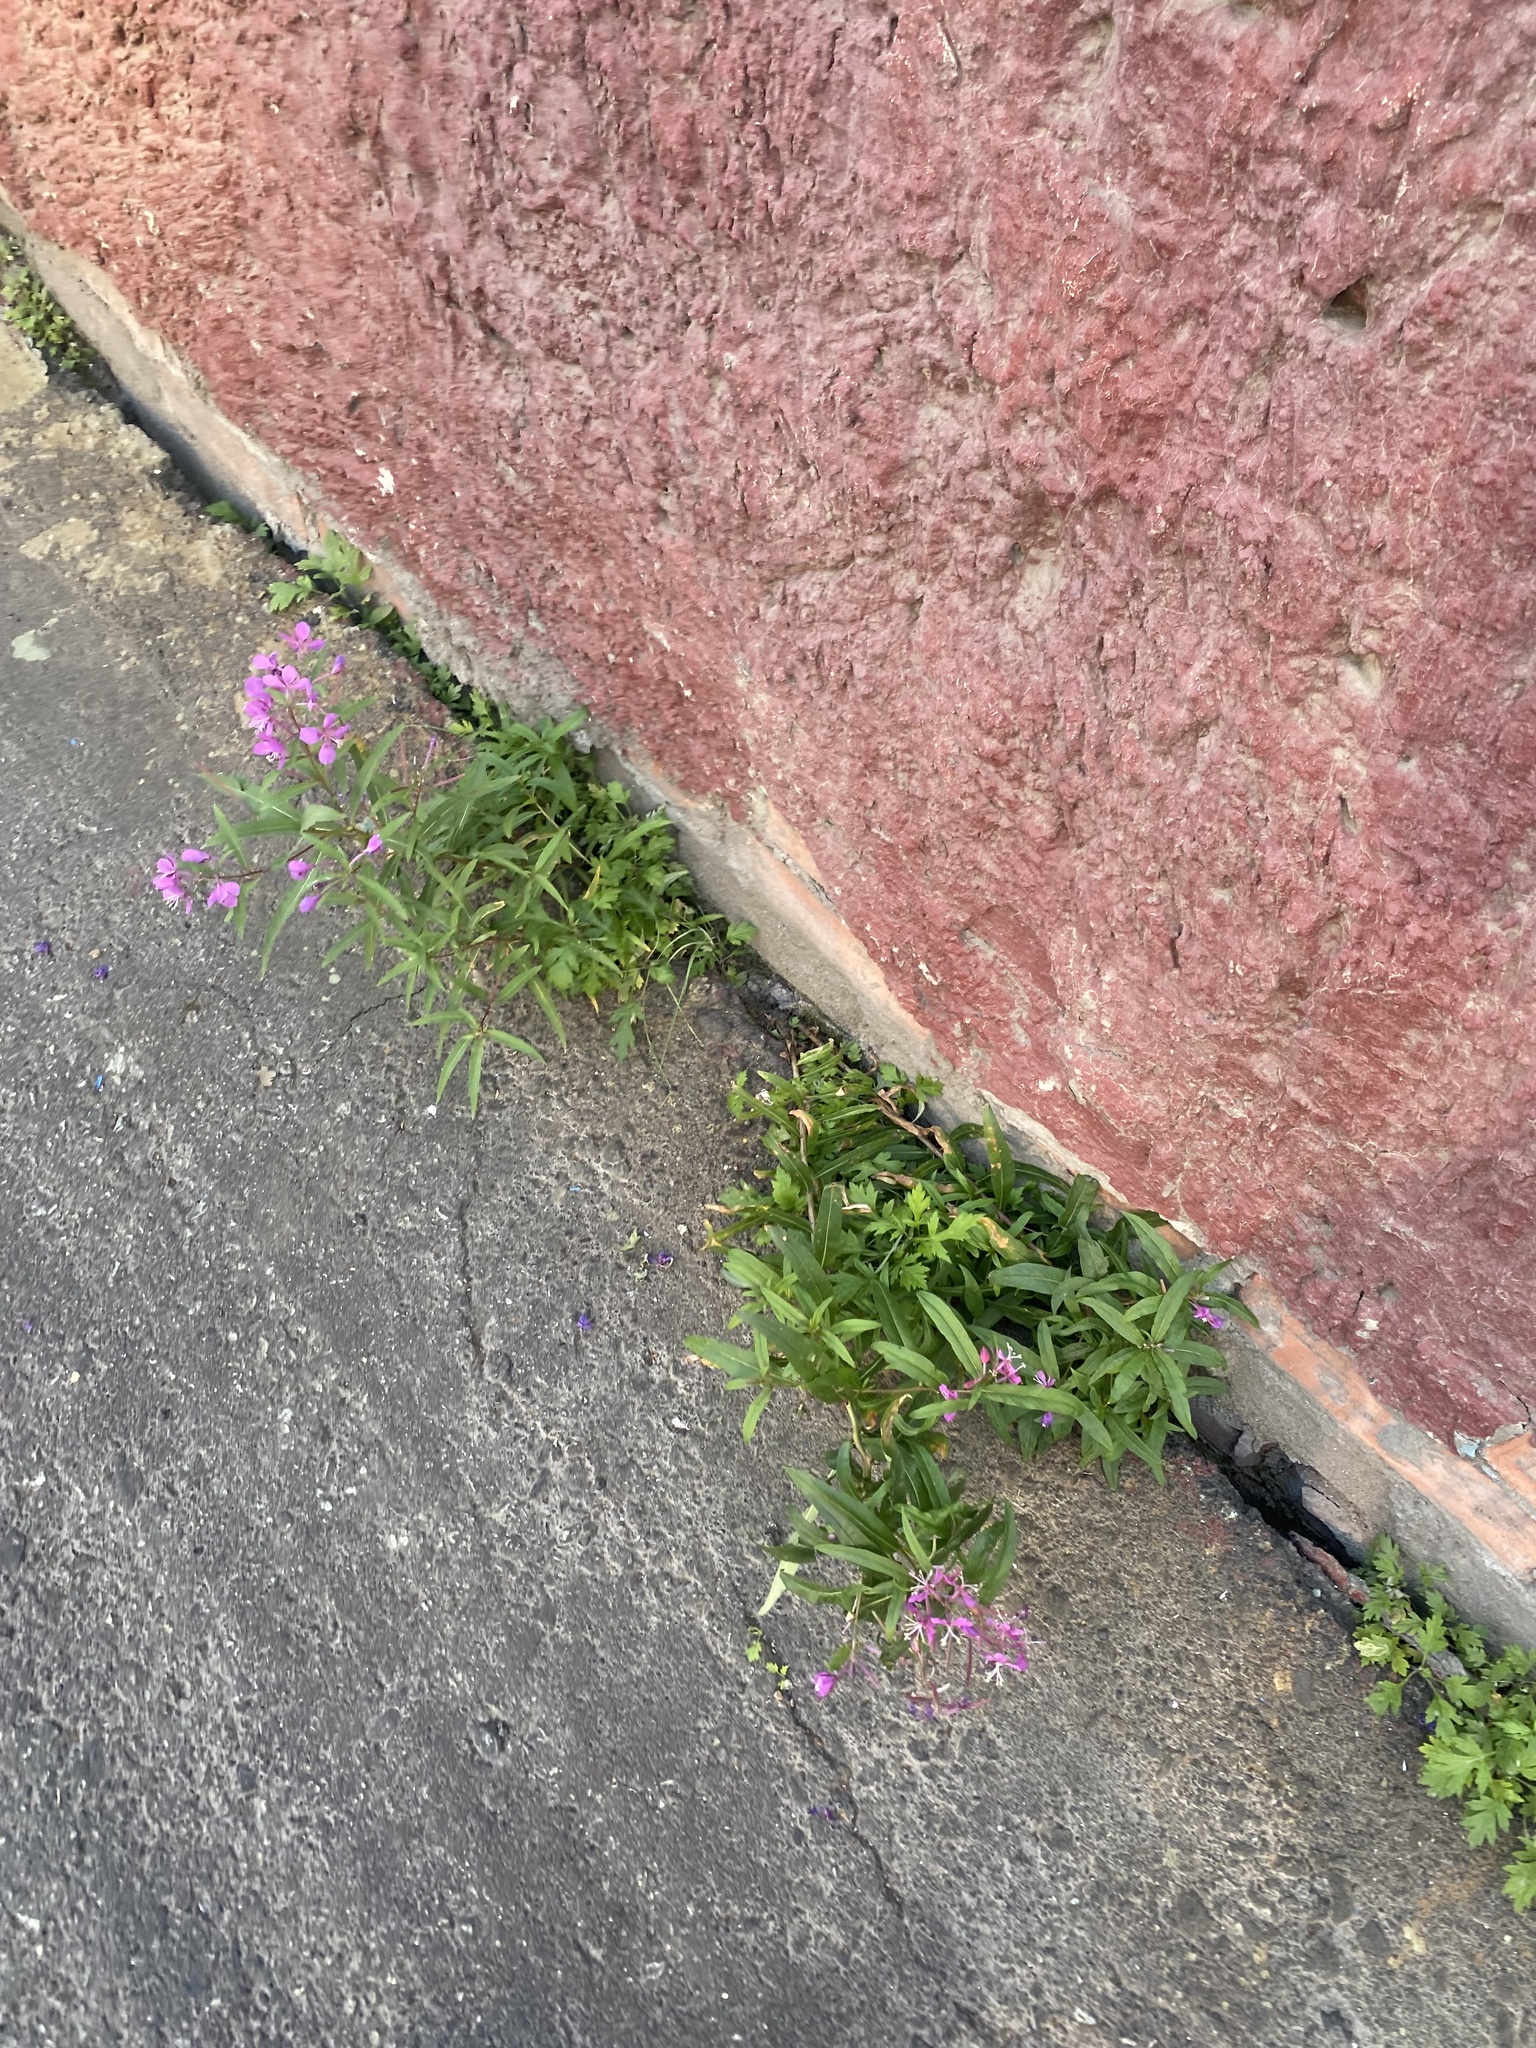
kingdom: Plantae
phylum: Tracheophyta
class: Magnoliopsida
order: Myrtales
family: Onagraceae
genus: Chamaenerion
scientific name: Chamaenerion angustifolium
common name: Fireweed
